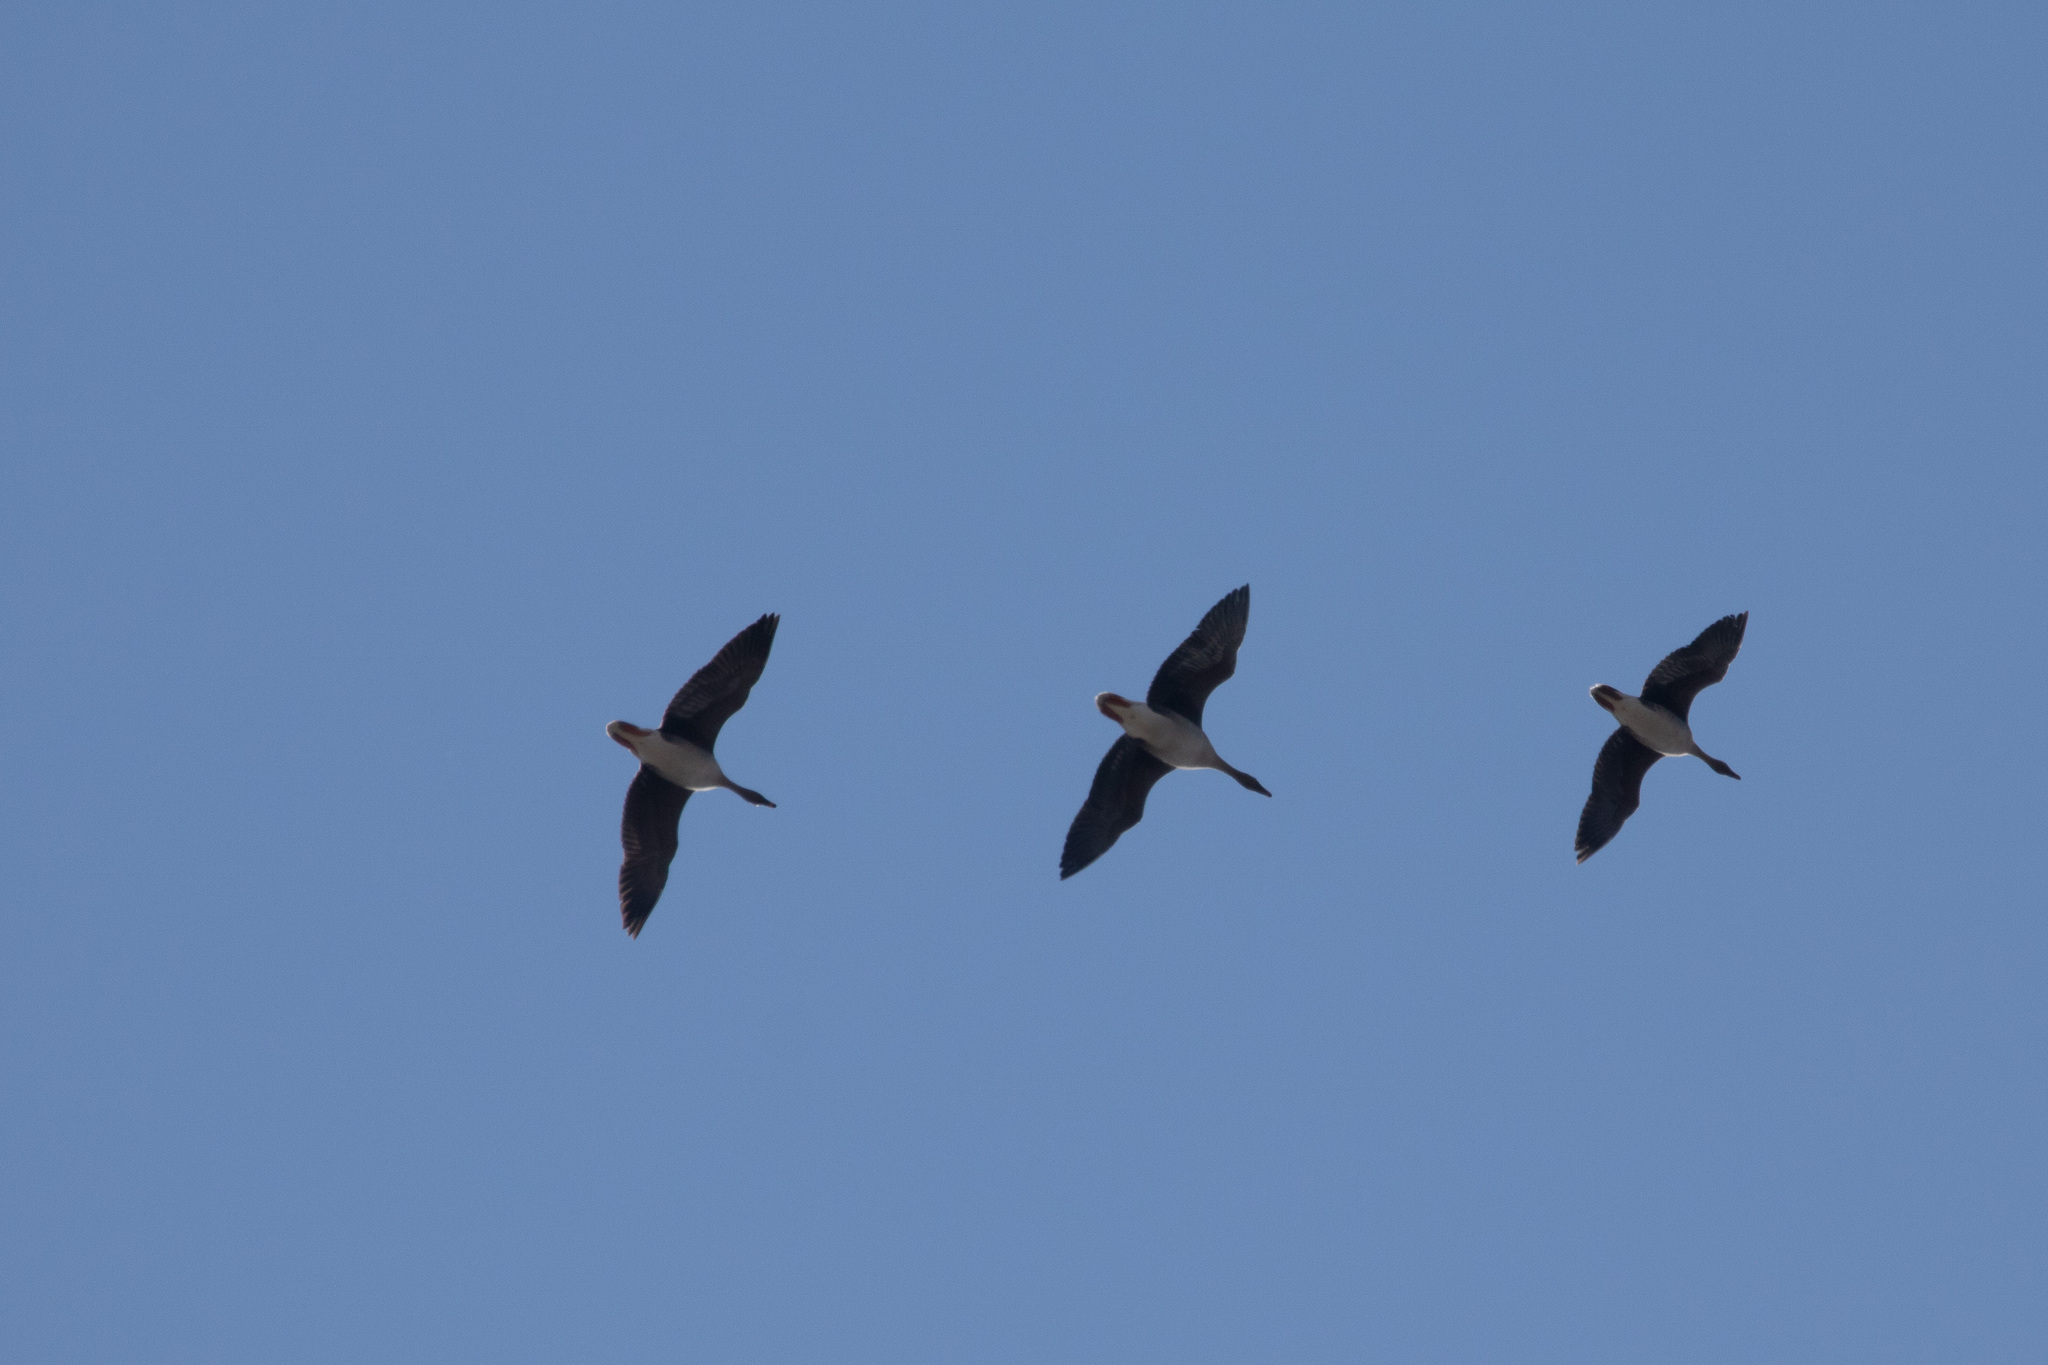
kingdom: Animalia
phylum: Chordata
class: Aves
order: Anseriformes
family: Anatidae
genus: Anser
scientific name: Anser fabalis
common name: Bean goose
